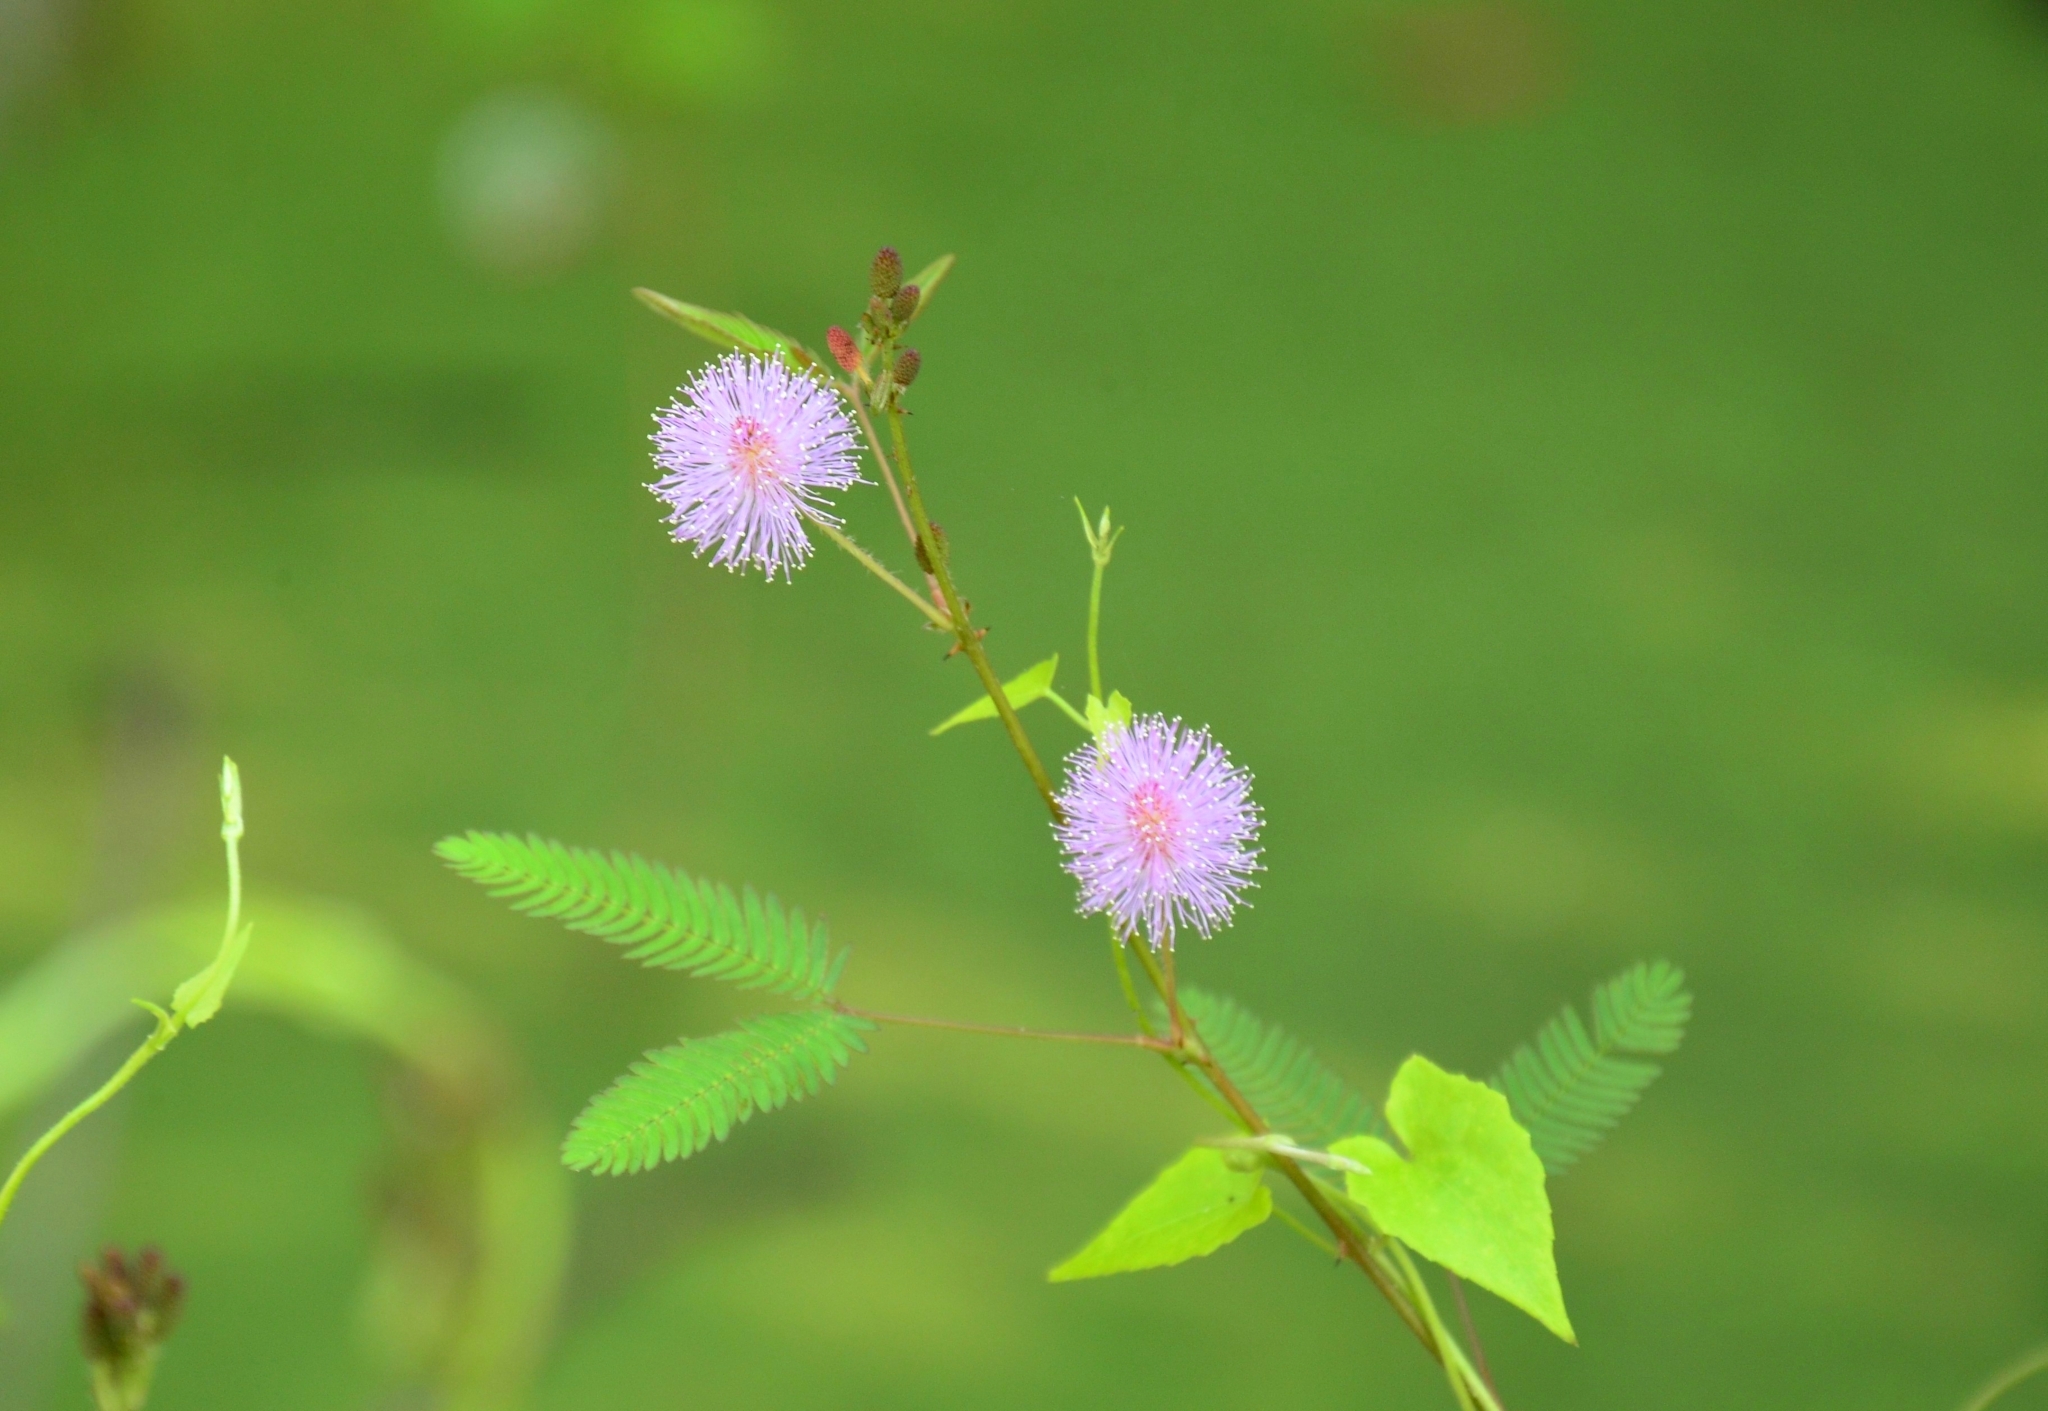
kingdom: Plantae
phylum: Tracheophyta
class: Magnoliopsida
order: Fabales
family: Fabaceae
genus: Mimosa
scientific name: Mimosa pudica
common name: Sensitive plant
